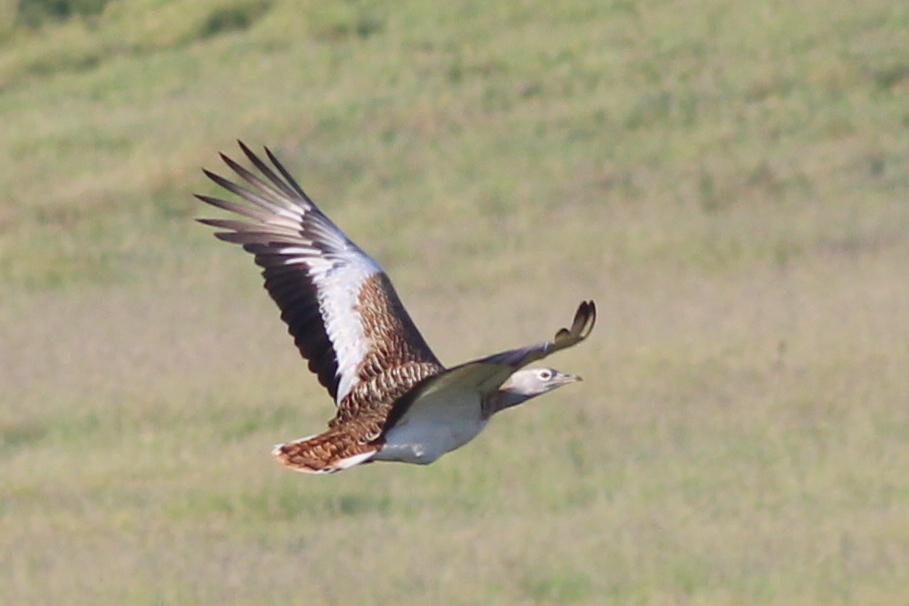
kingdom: Animalia
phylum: Chordata
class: Aves
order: Otidiformes
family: Otididae
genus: Otis
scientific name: Otis tarda
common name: Great bustard
